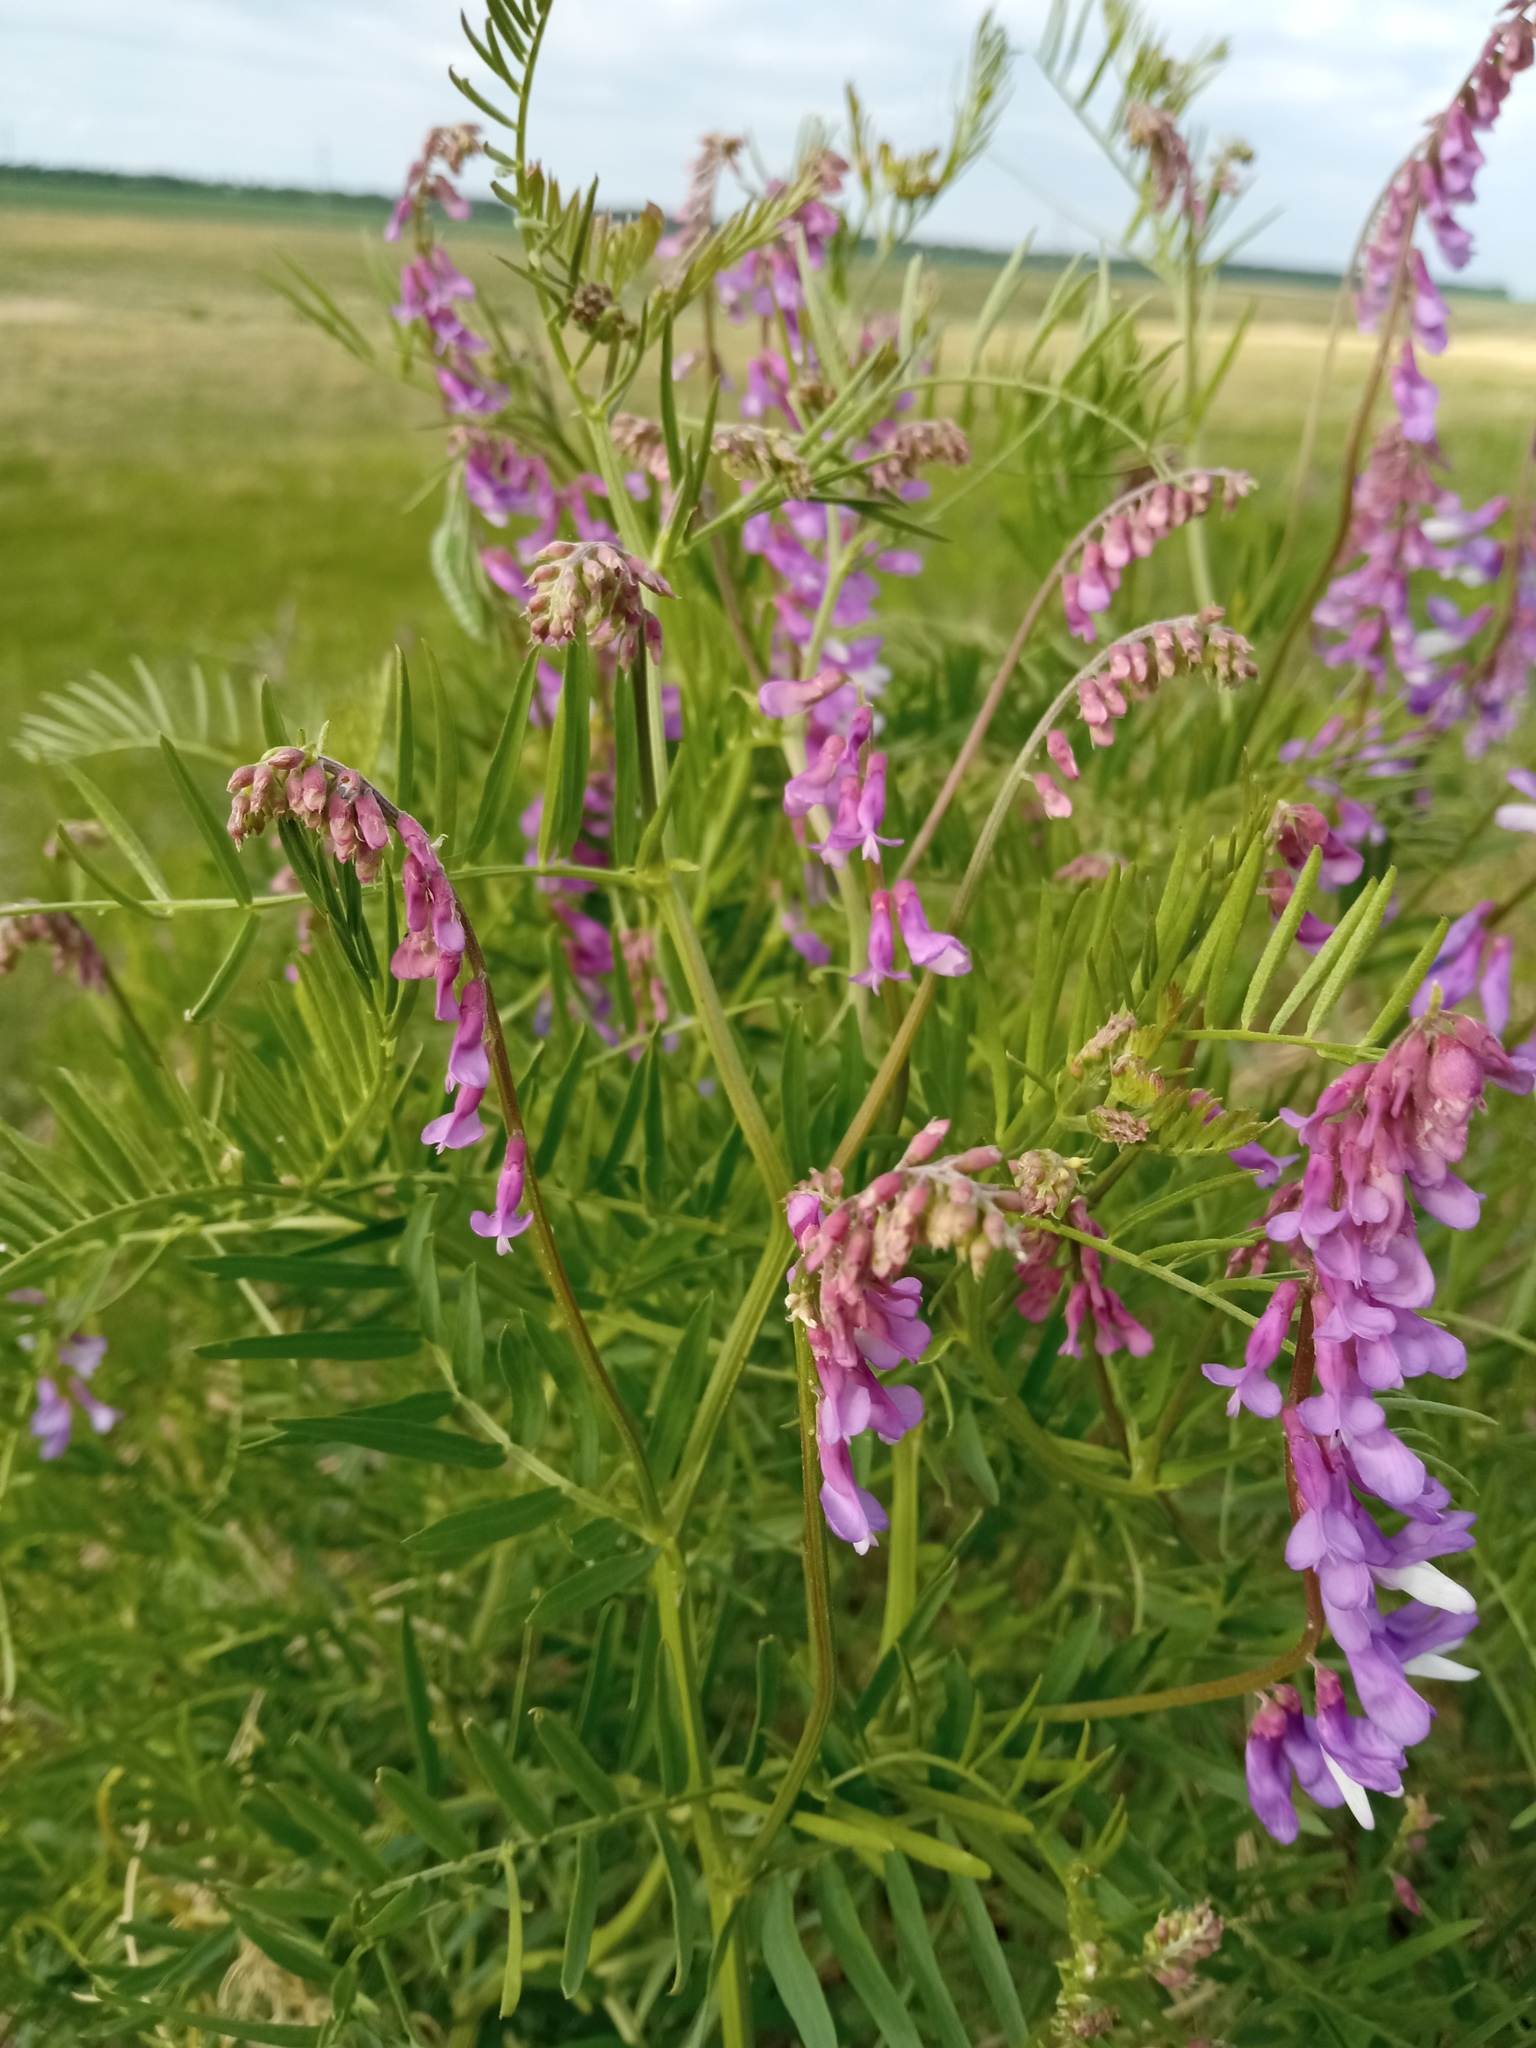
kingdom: Plantae
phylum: Tracheophyta
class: Magnoliopsida
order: Fabales
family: Fabaceae
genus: Vicia
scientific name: Vicia tenuifolia
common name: Fine-leaved vetch
